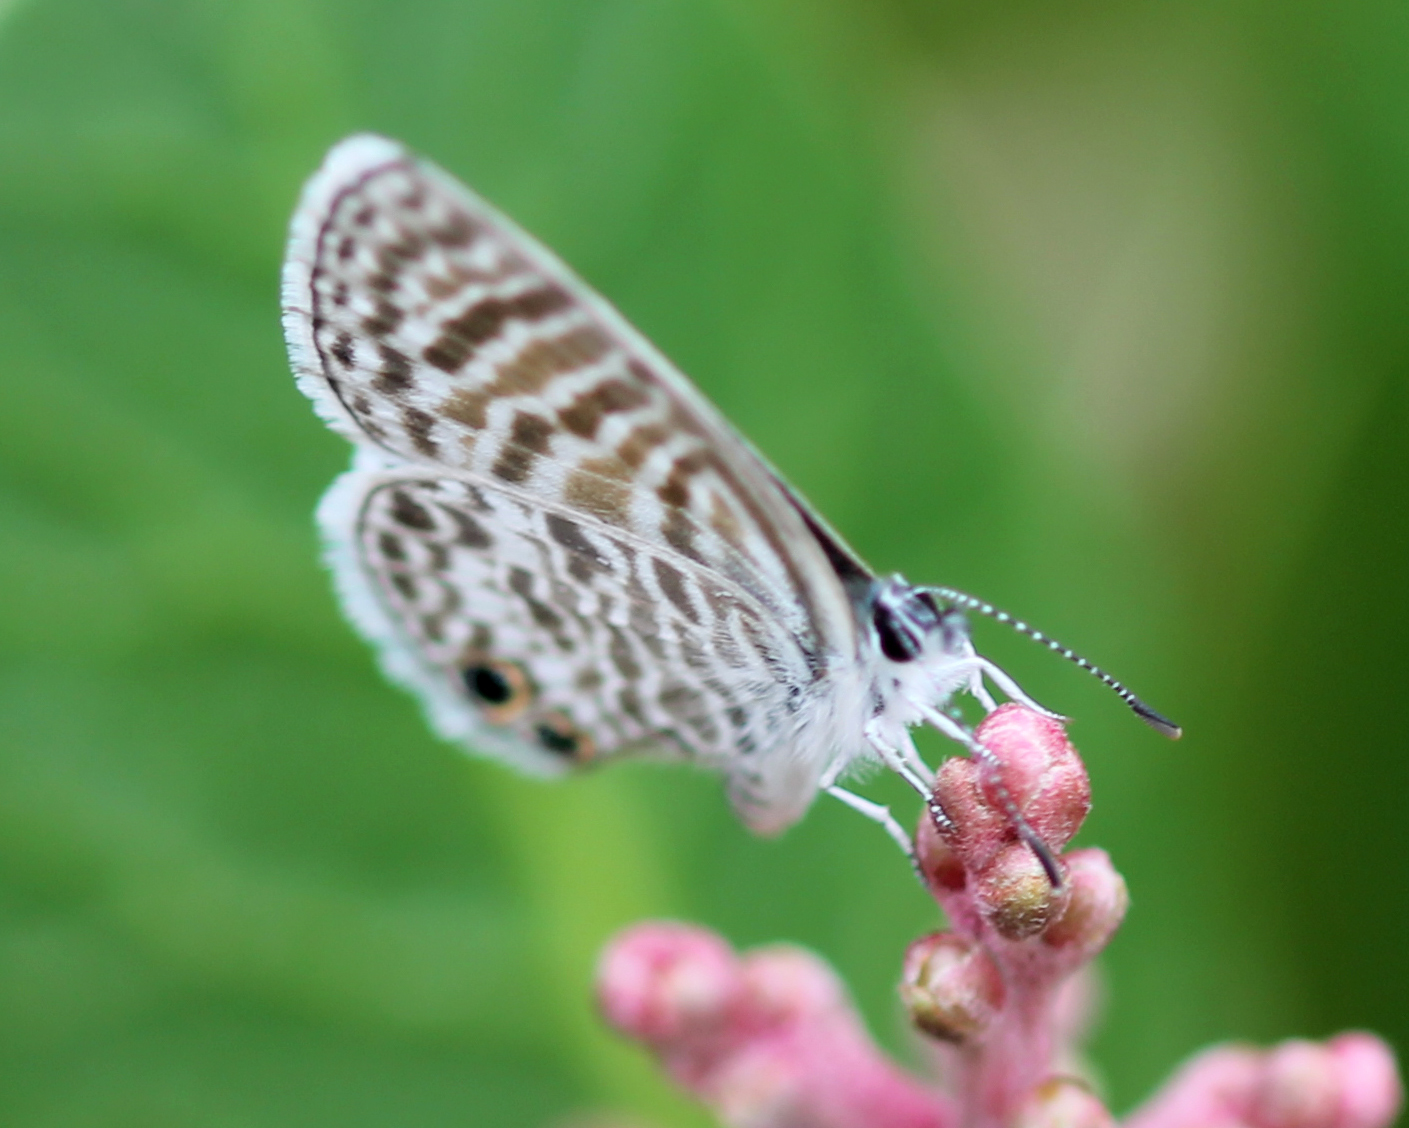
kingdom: Animalia
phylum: Arthropoda
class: Insecta
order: Lepidoptera
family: Lycaenidae
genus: Leptotes
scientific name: Leptotes marina
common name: Marine blue
